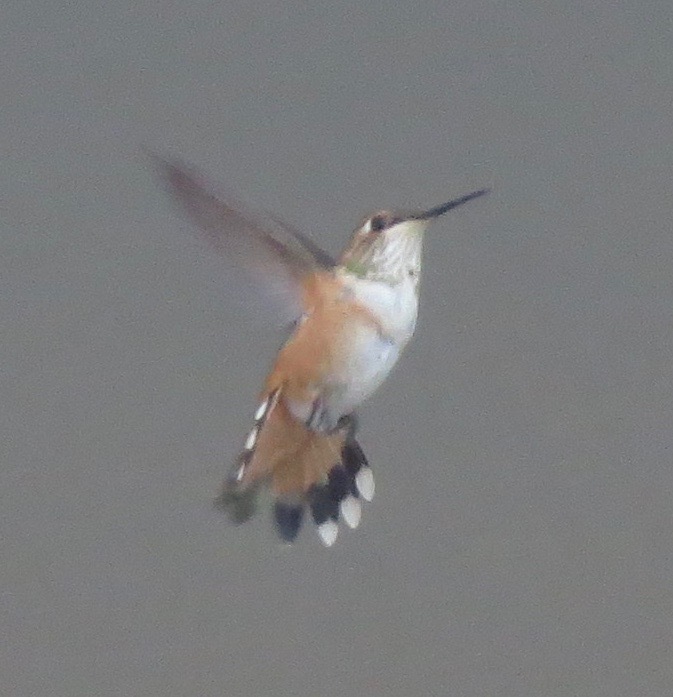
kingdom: Animalia
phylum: Chordata
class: Aves
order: Apodiformes
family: Trochilidae
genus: Selasphorus
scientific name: Selasphorus rufus
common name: Rufous hummingbird
